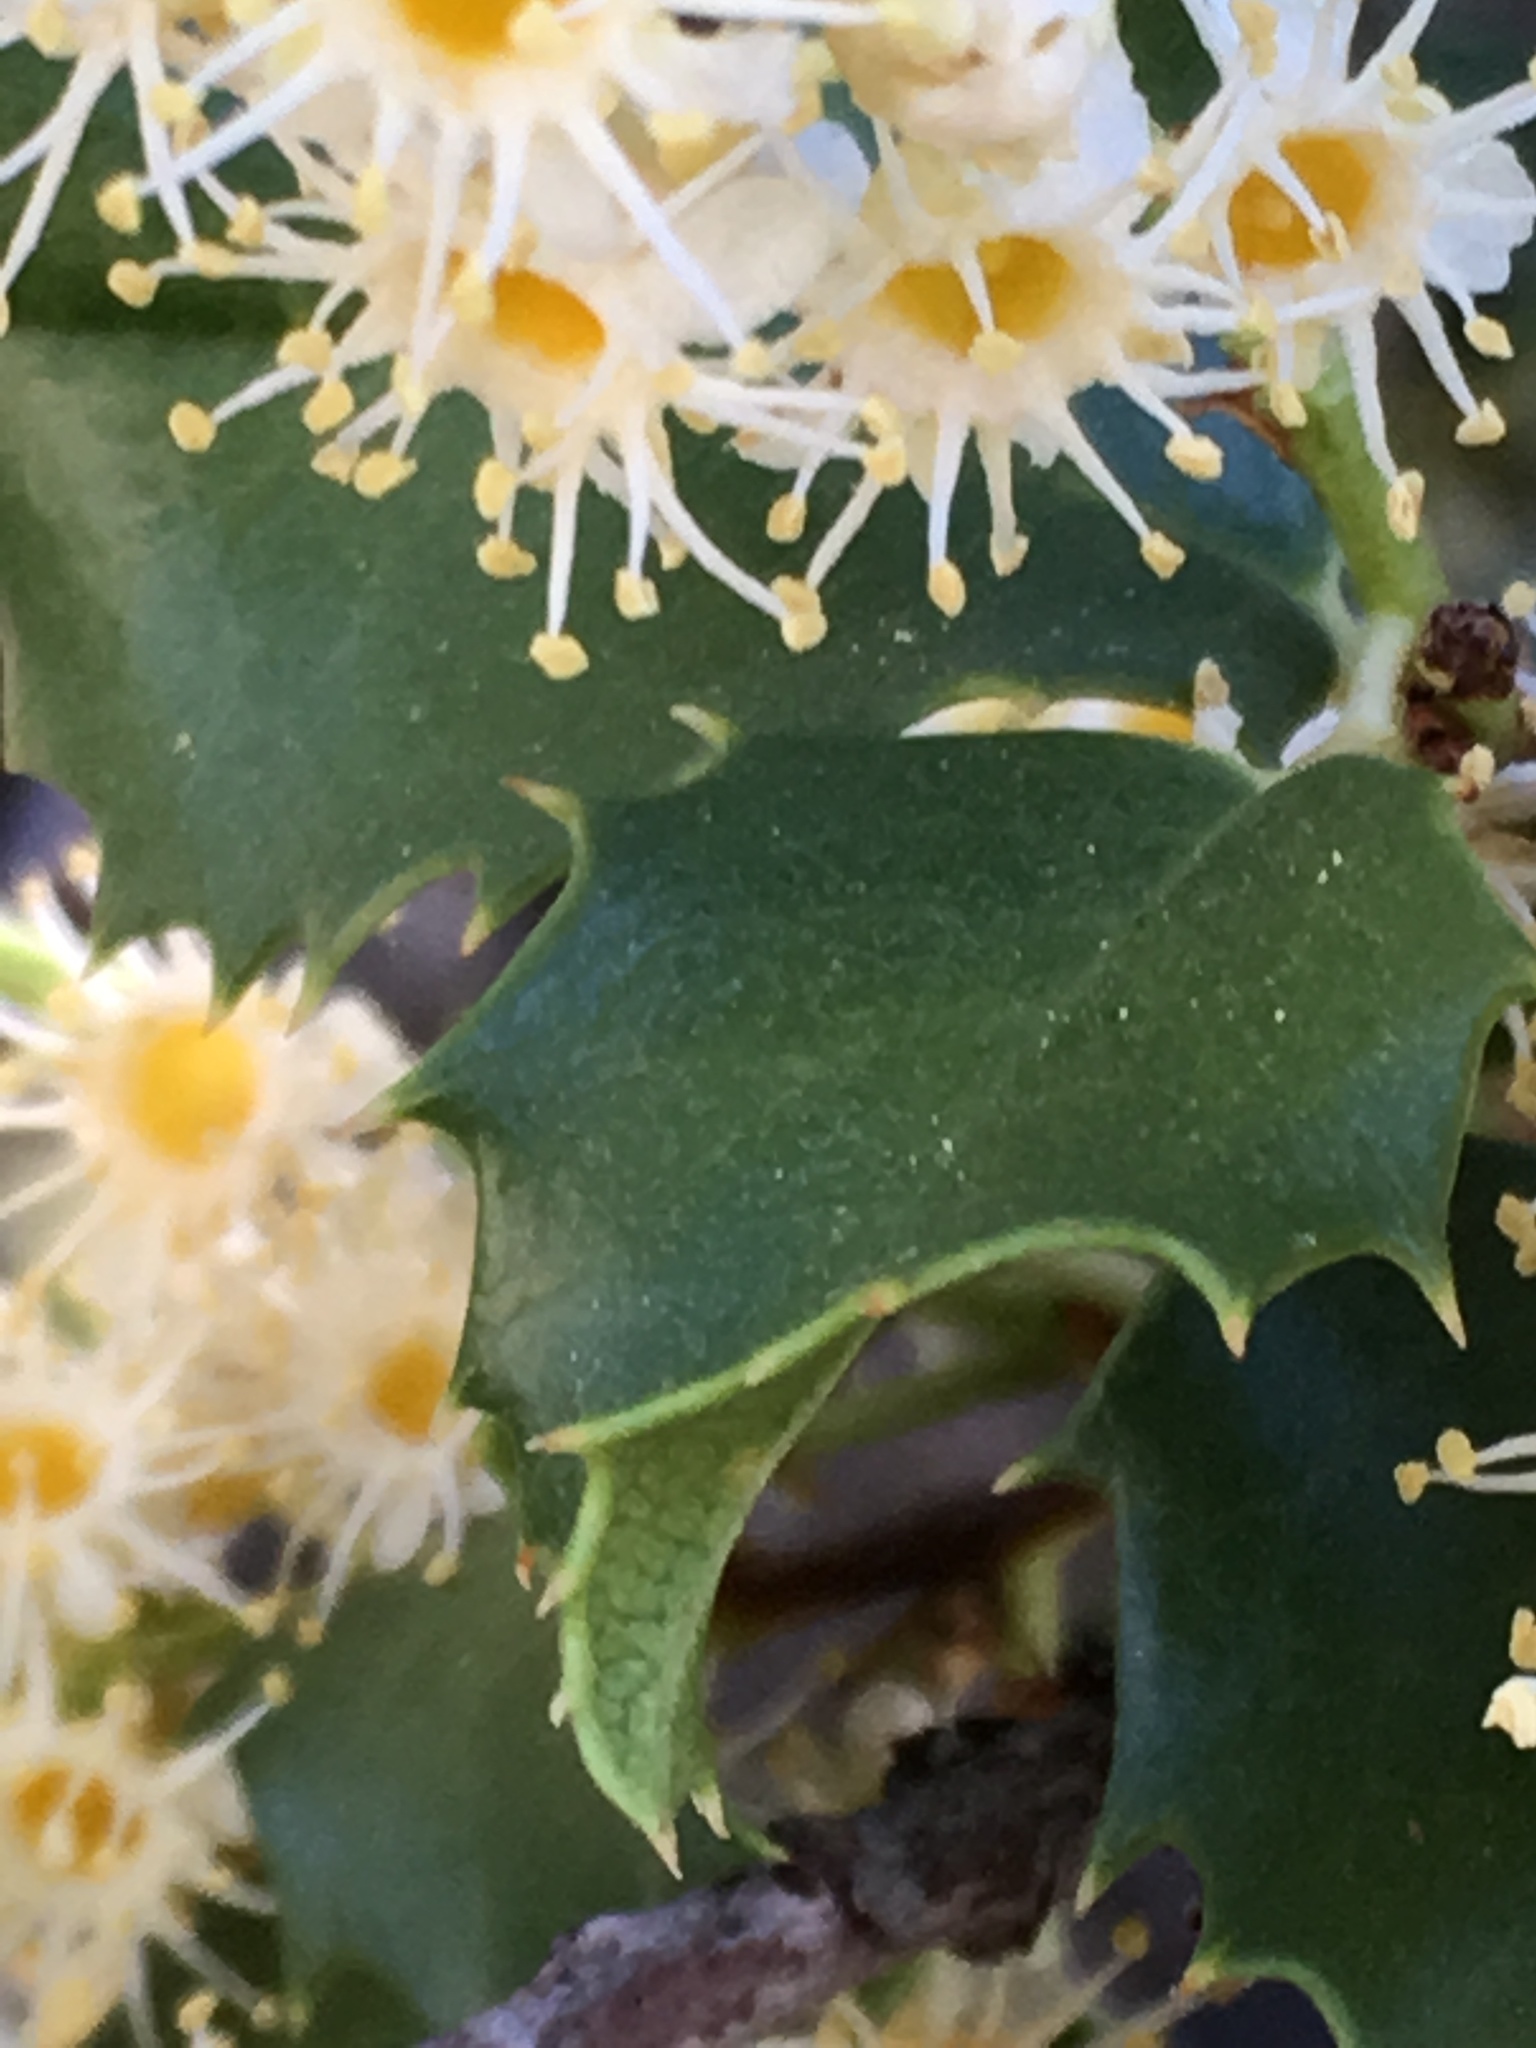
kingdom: Plantae
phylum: Tracheophyta
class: Magnoliopsida
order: Rosales
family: Rosaceae
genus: Prunus
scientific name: Prunus ilicifolia
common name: Hollyleaf cherry
